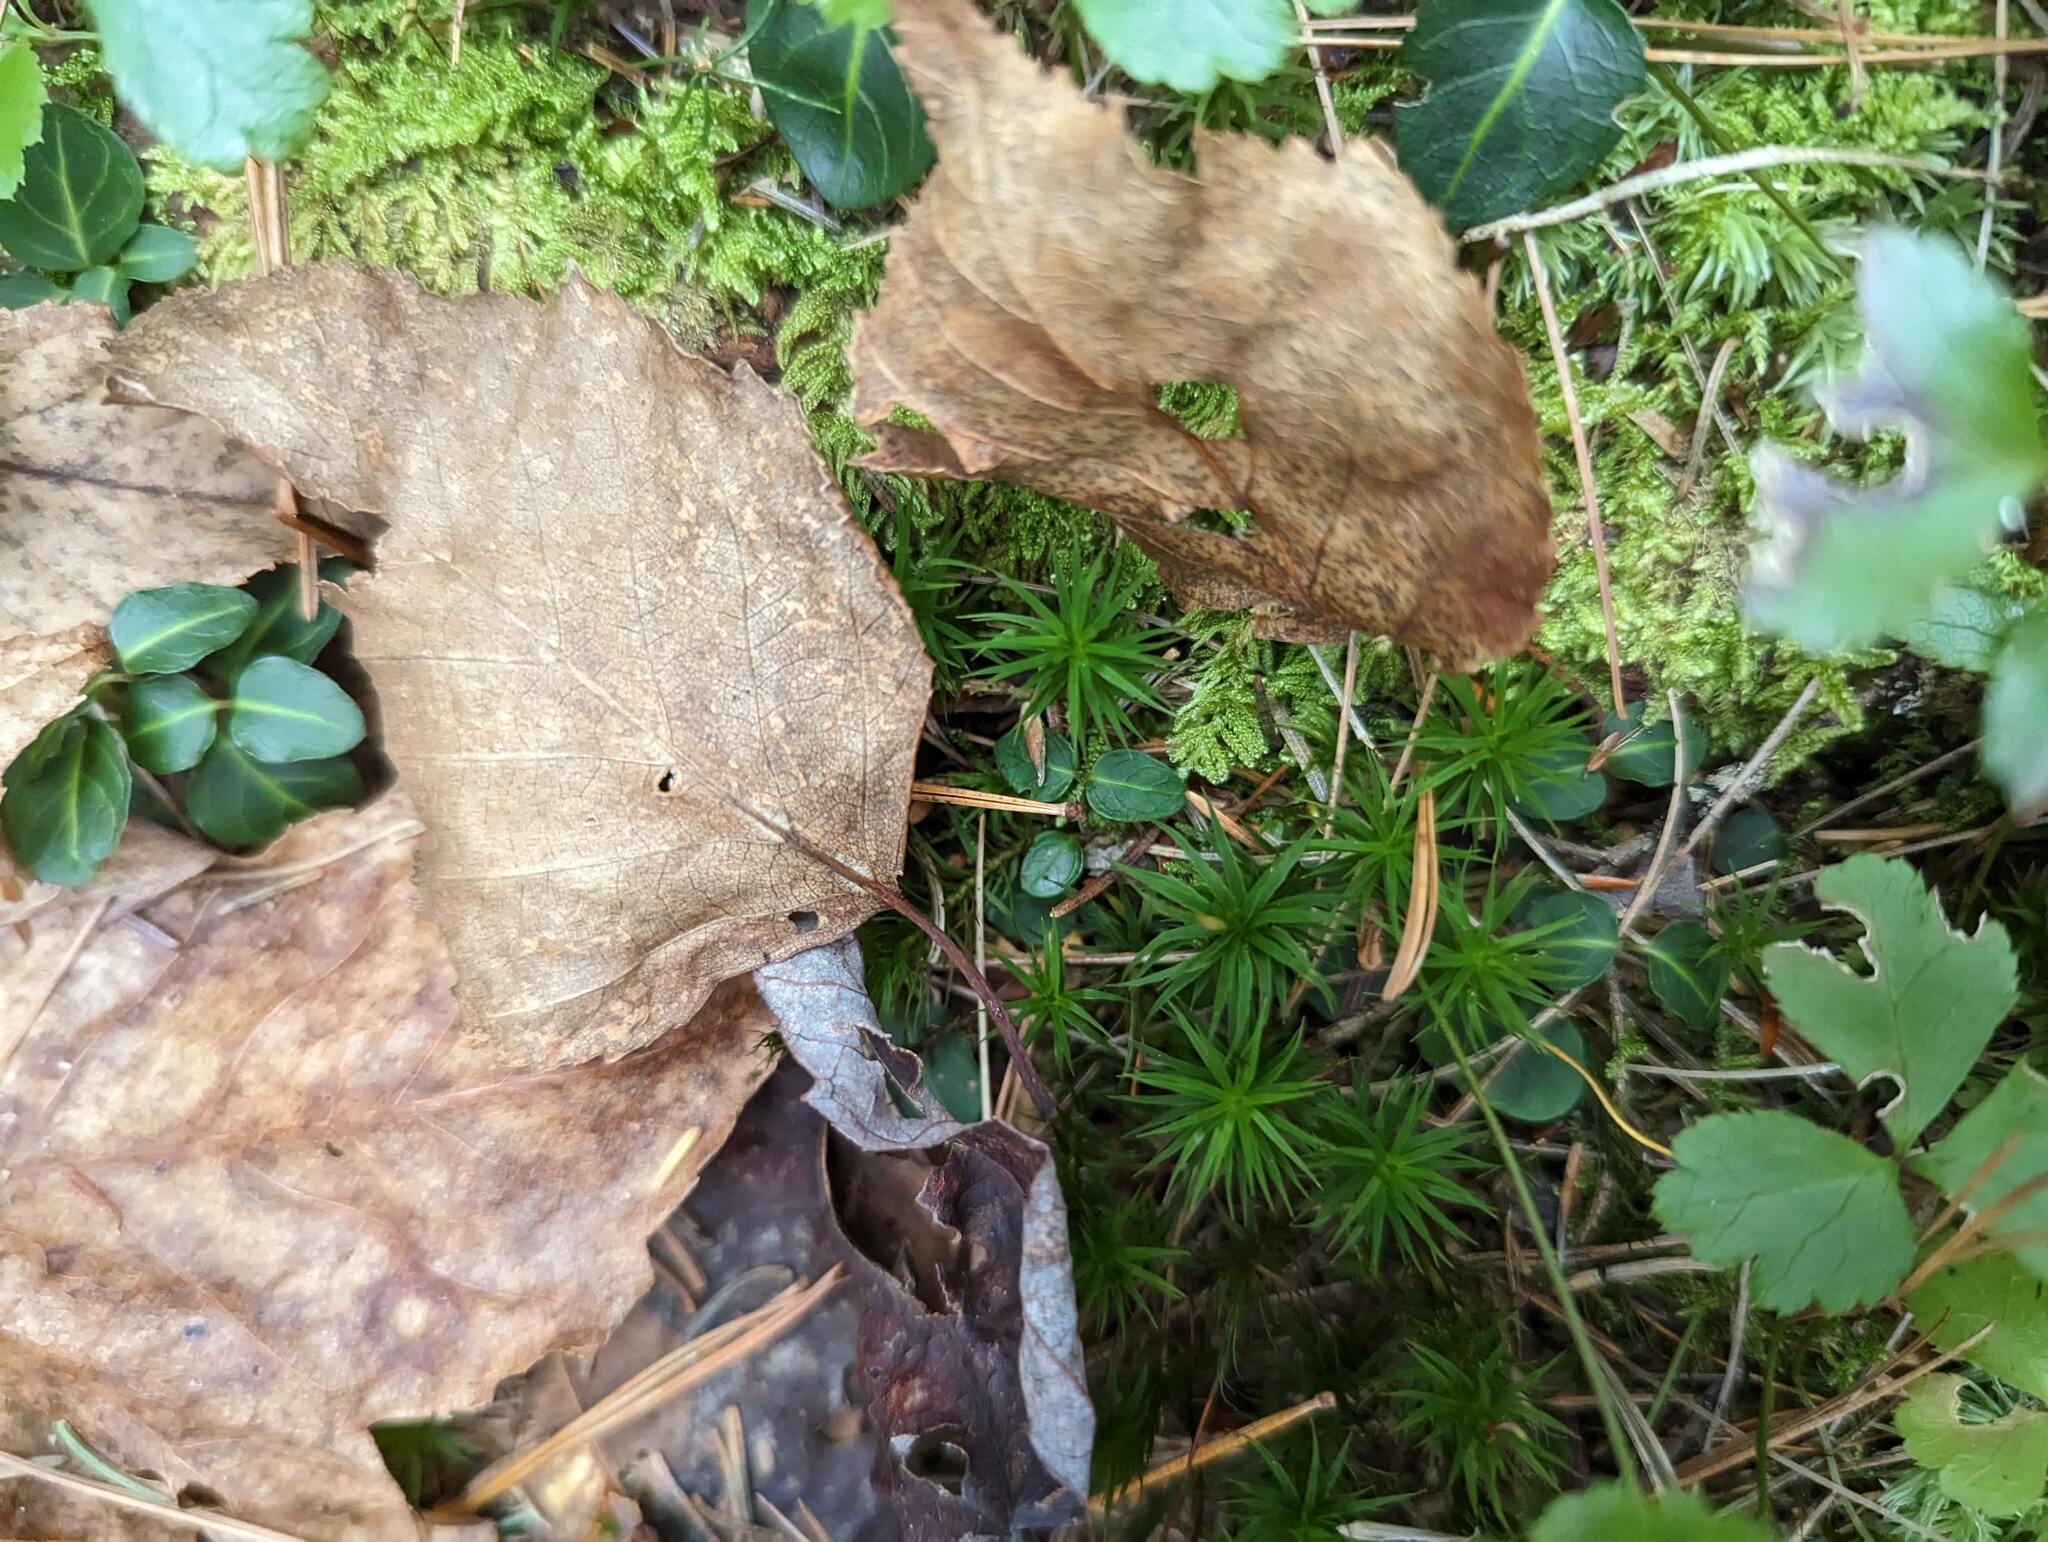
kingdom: Plantae
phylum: Tracheophyta
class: Magnoliopsida
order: Gentianales
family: Rubiaceae
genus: Mitchella
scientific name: Mitchella repens
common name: Partridge-berry
